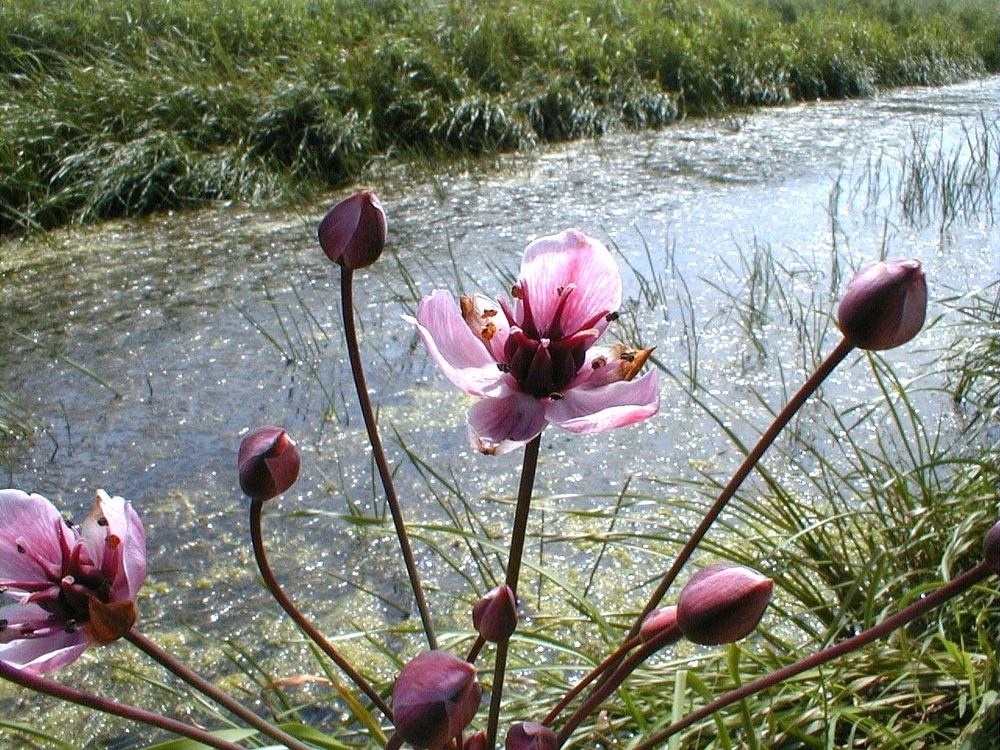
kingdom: Plantae
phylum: Tracheophyta
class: Liliopsida
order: Alismatales
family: Butomaceae
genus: Butomus
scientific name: Butomus umbellatus
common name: Flowering-rush
